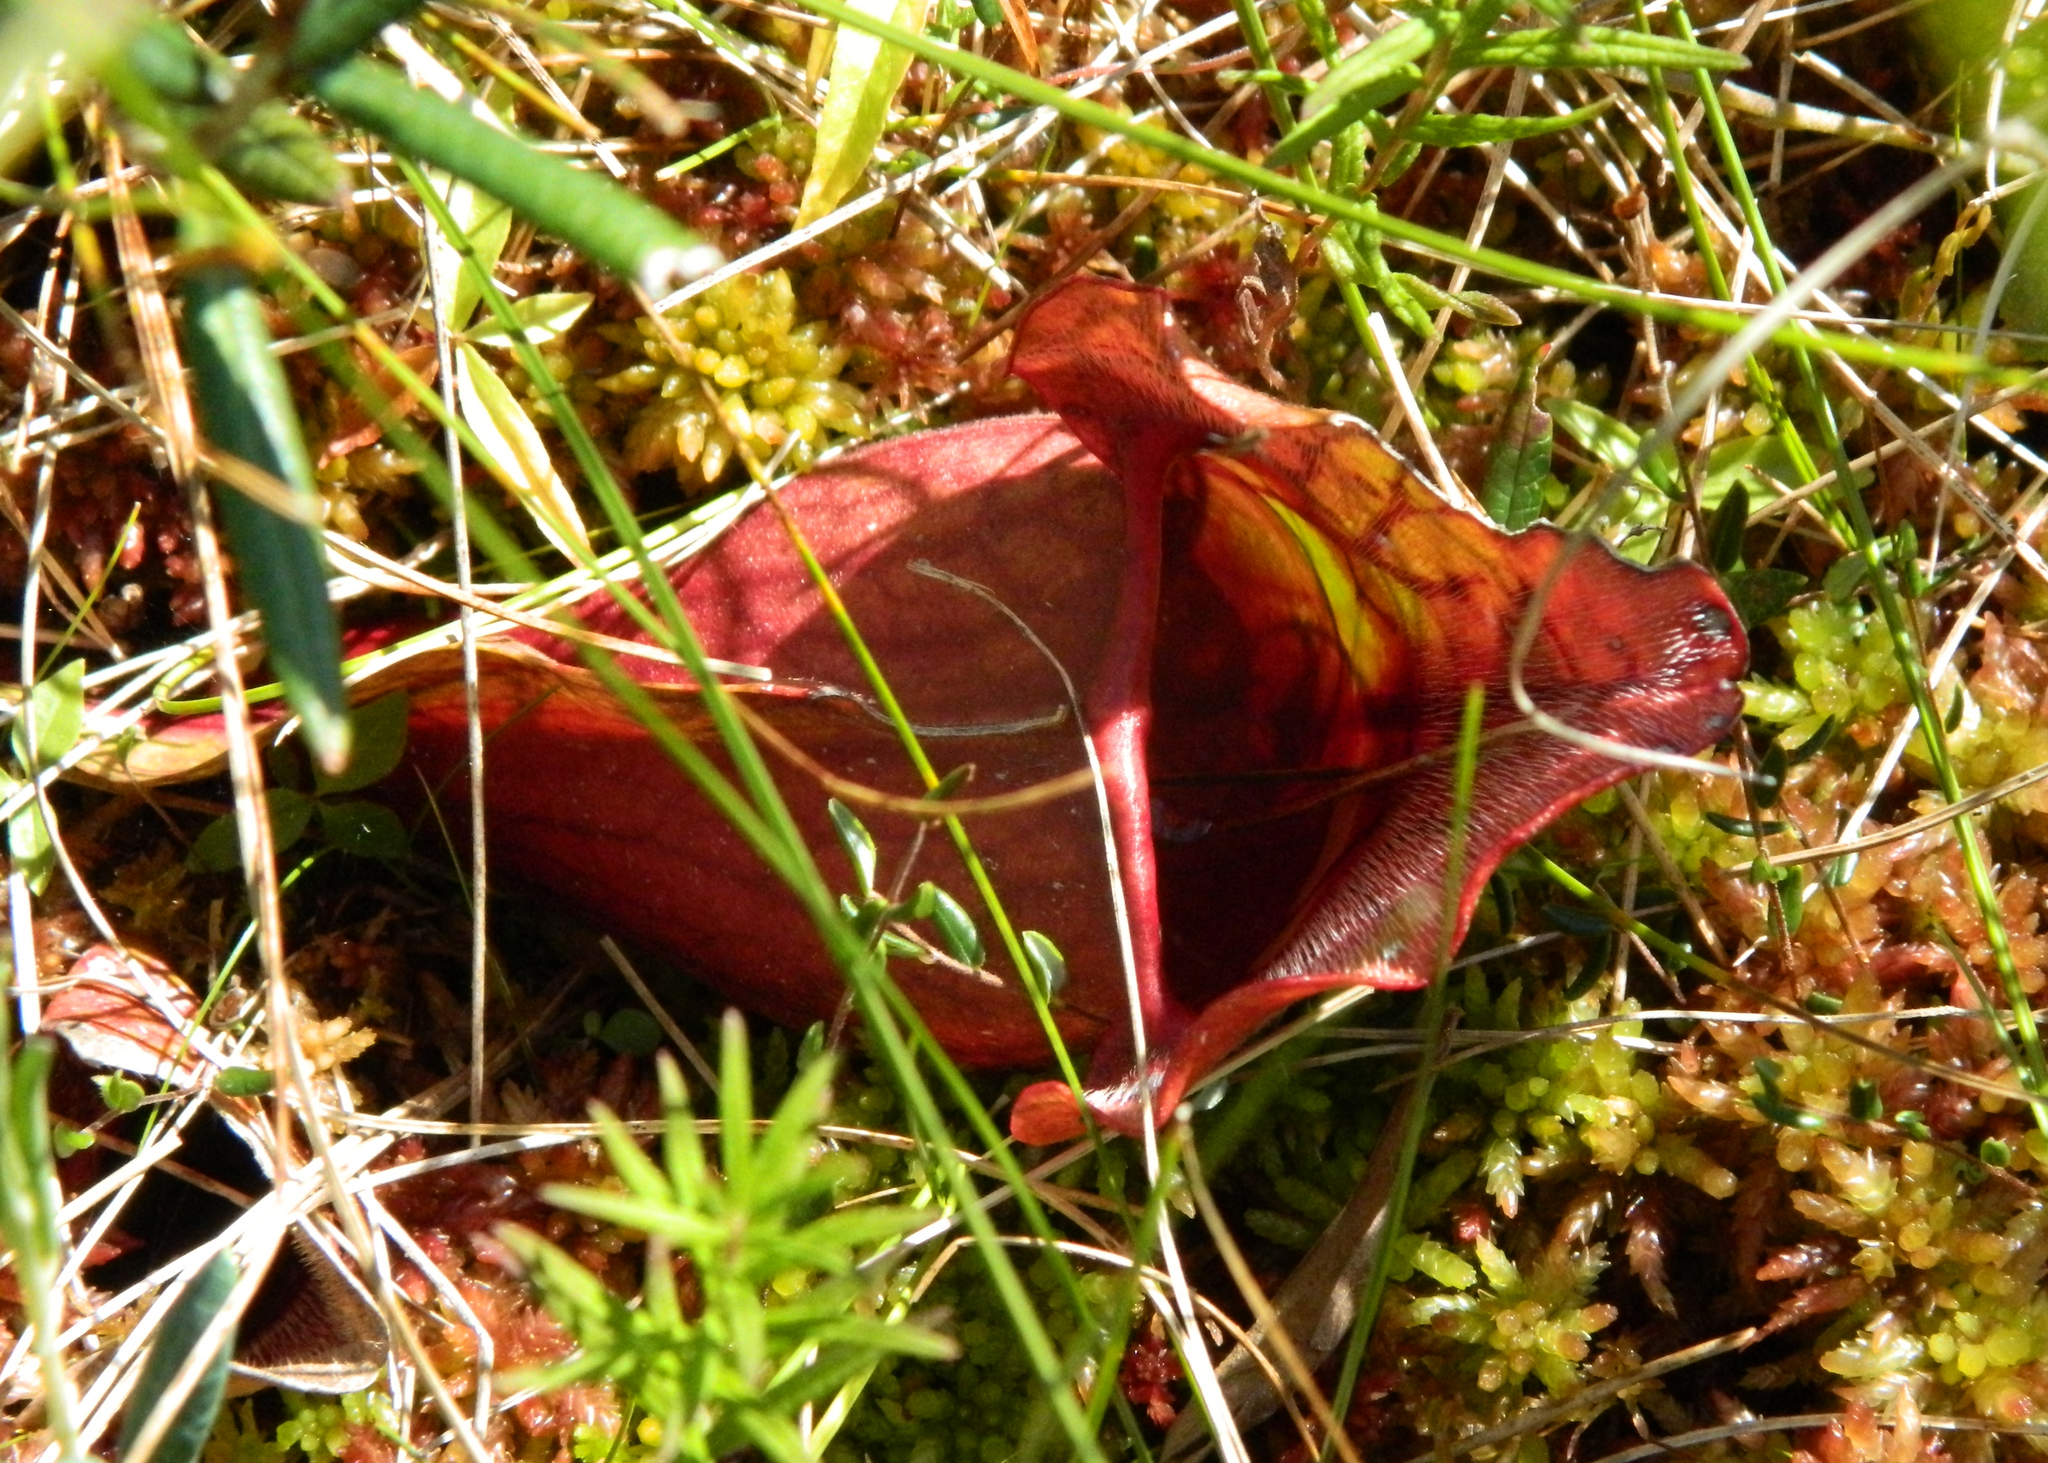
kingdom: Plantae
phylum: Tracheophyta
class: Magnoliopsida
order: Ericales
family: Sarraceniaceae
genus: Sarracenia
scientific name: Sarracenia purpurea
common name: Pitcherplant
